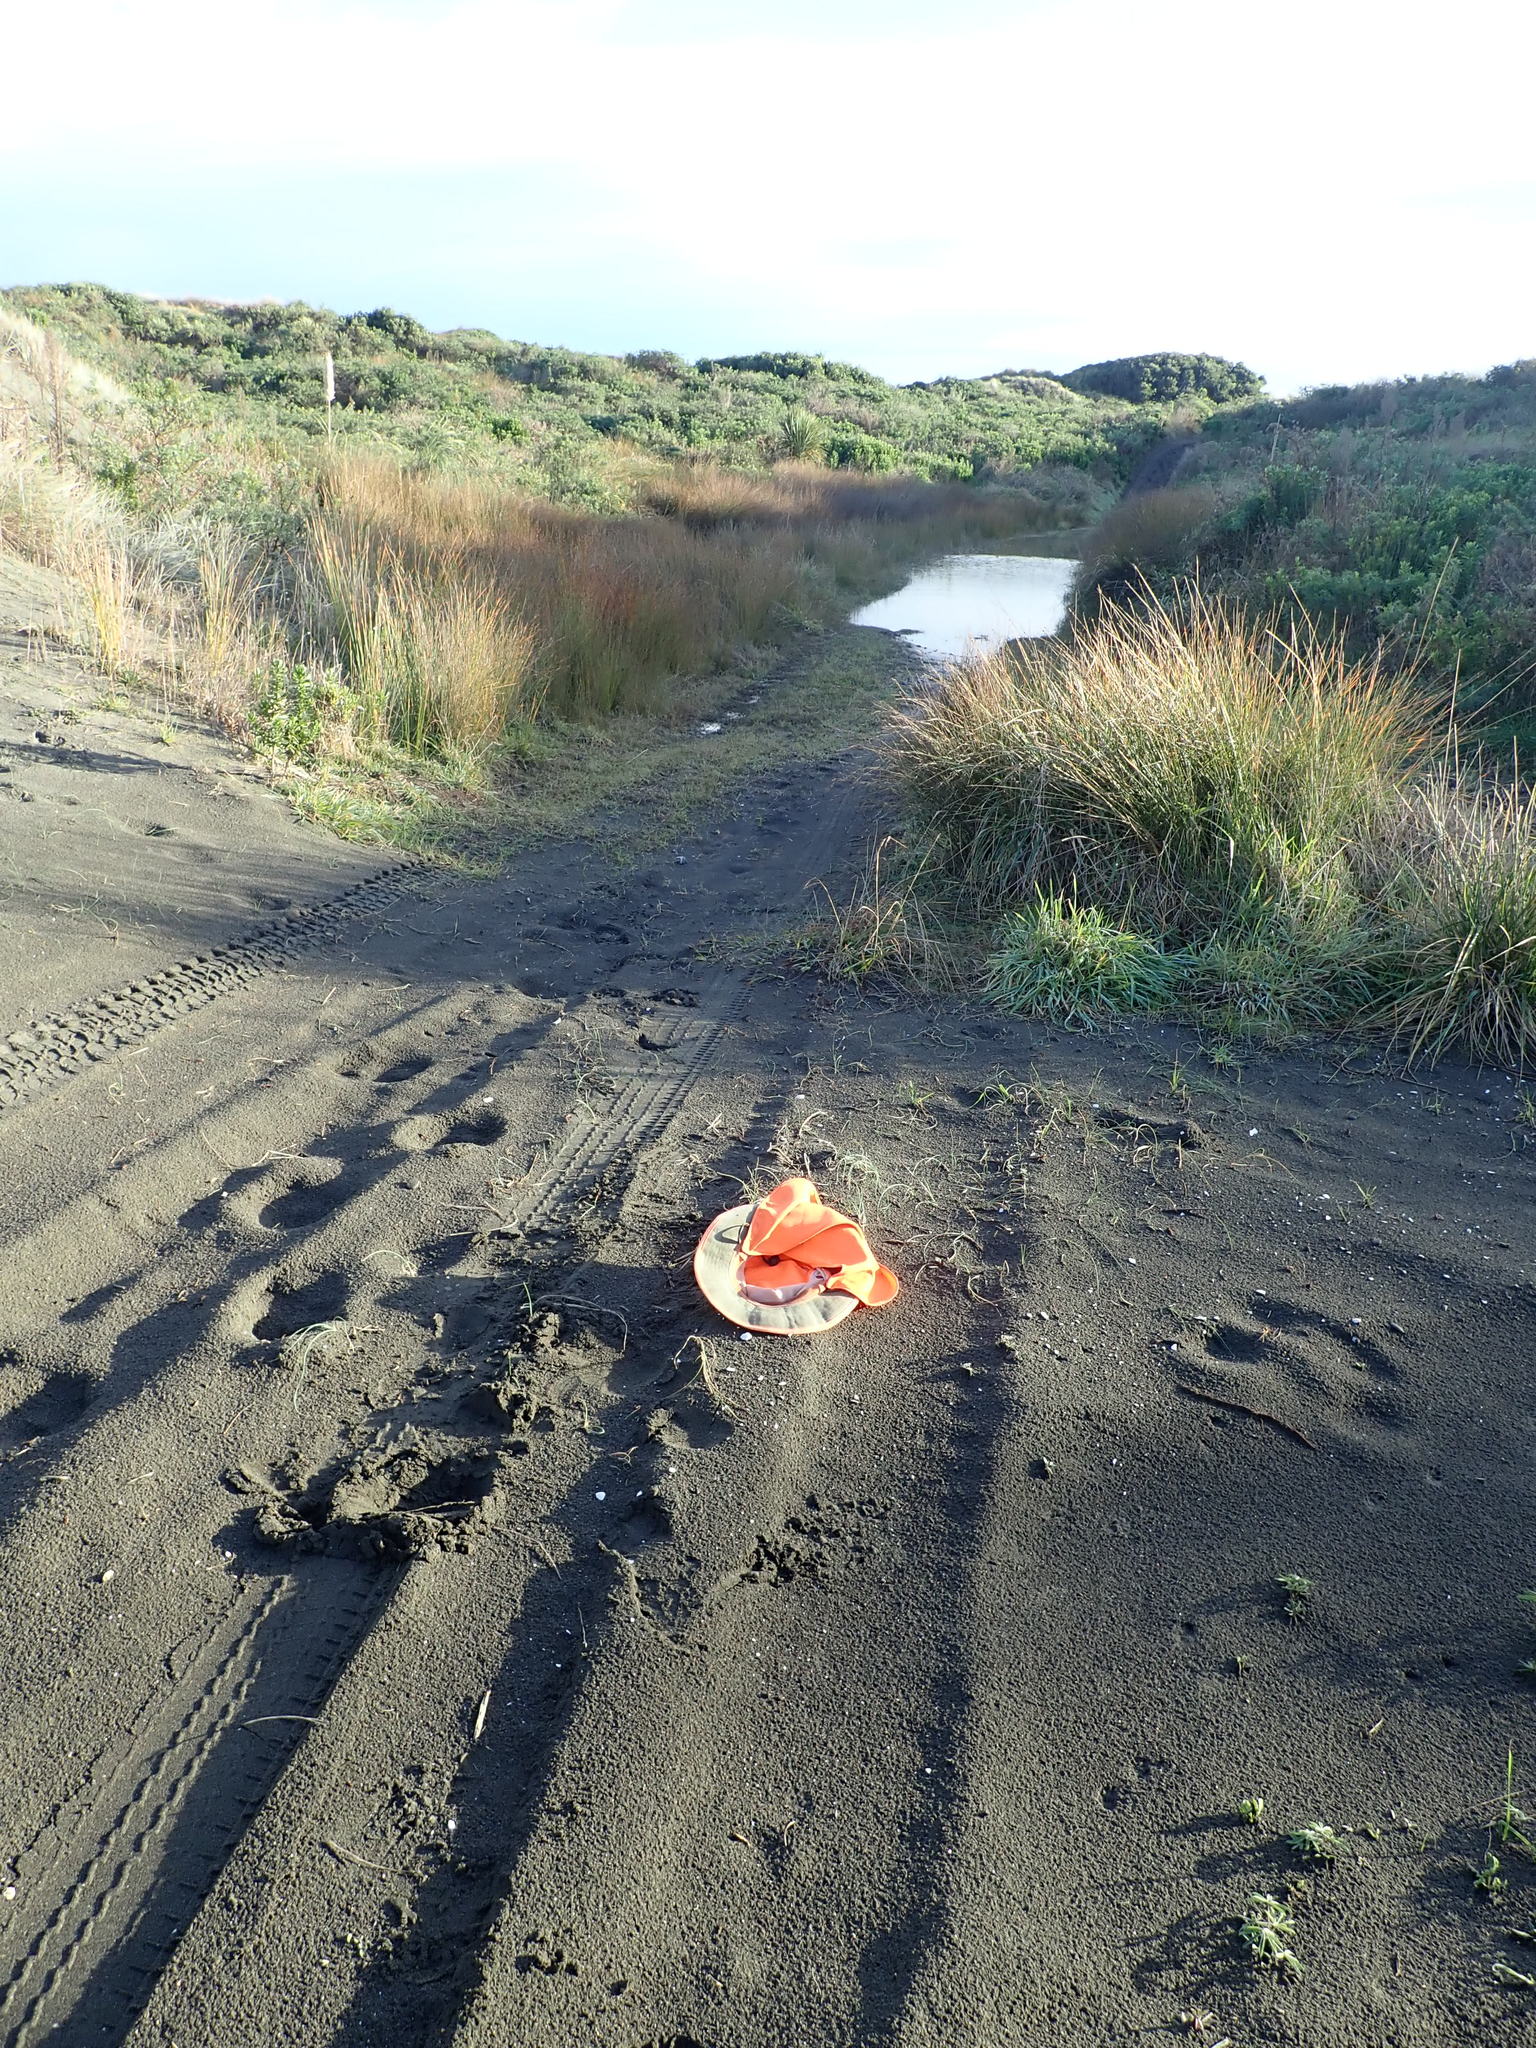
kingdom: Plantae
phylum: Tracheophyta
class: Liliopsida
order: Poales
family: Cyperaceae
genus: Carex
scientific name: Carex pumila
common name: Dwarf sedge
